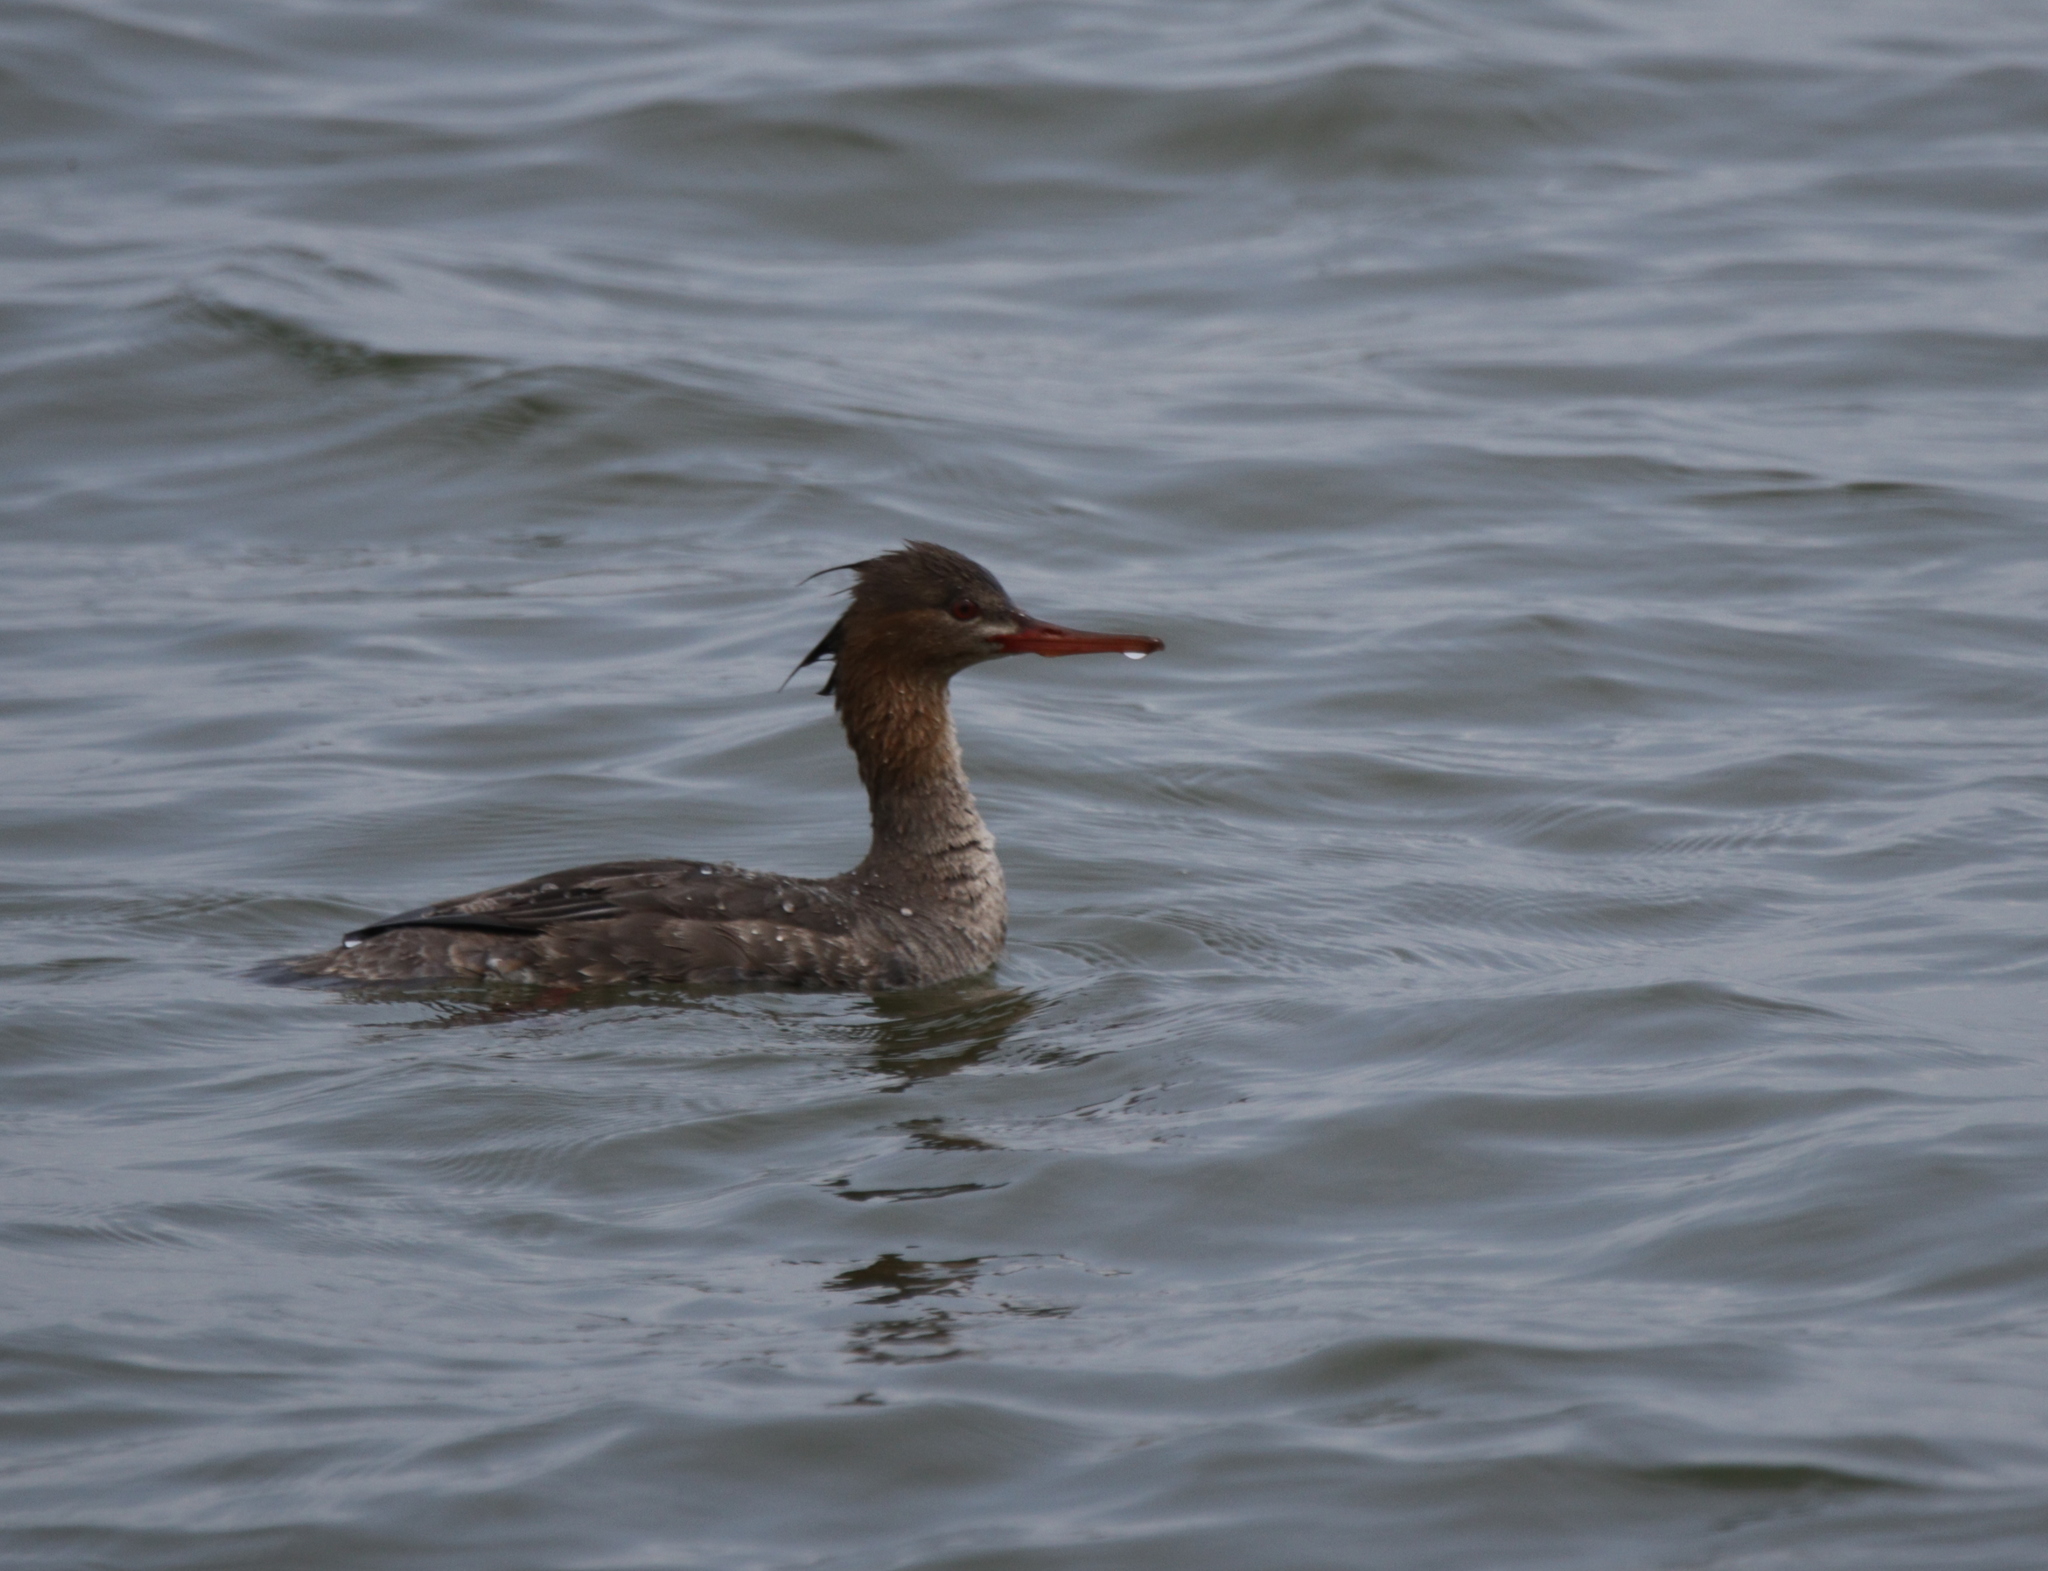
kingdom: Animalia
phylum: Chordata
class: Aves
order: Anseriformes
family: Anatidae
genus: Mergus
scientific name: Mergus serrator
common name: Red-breasted merganser
